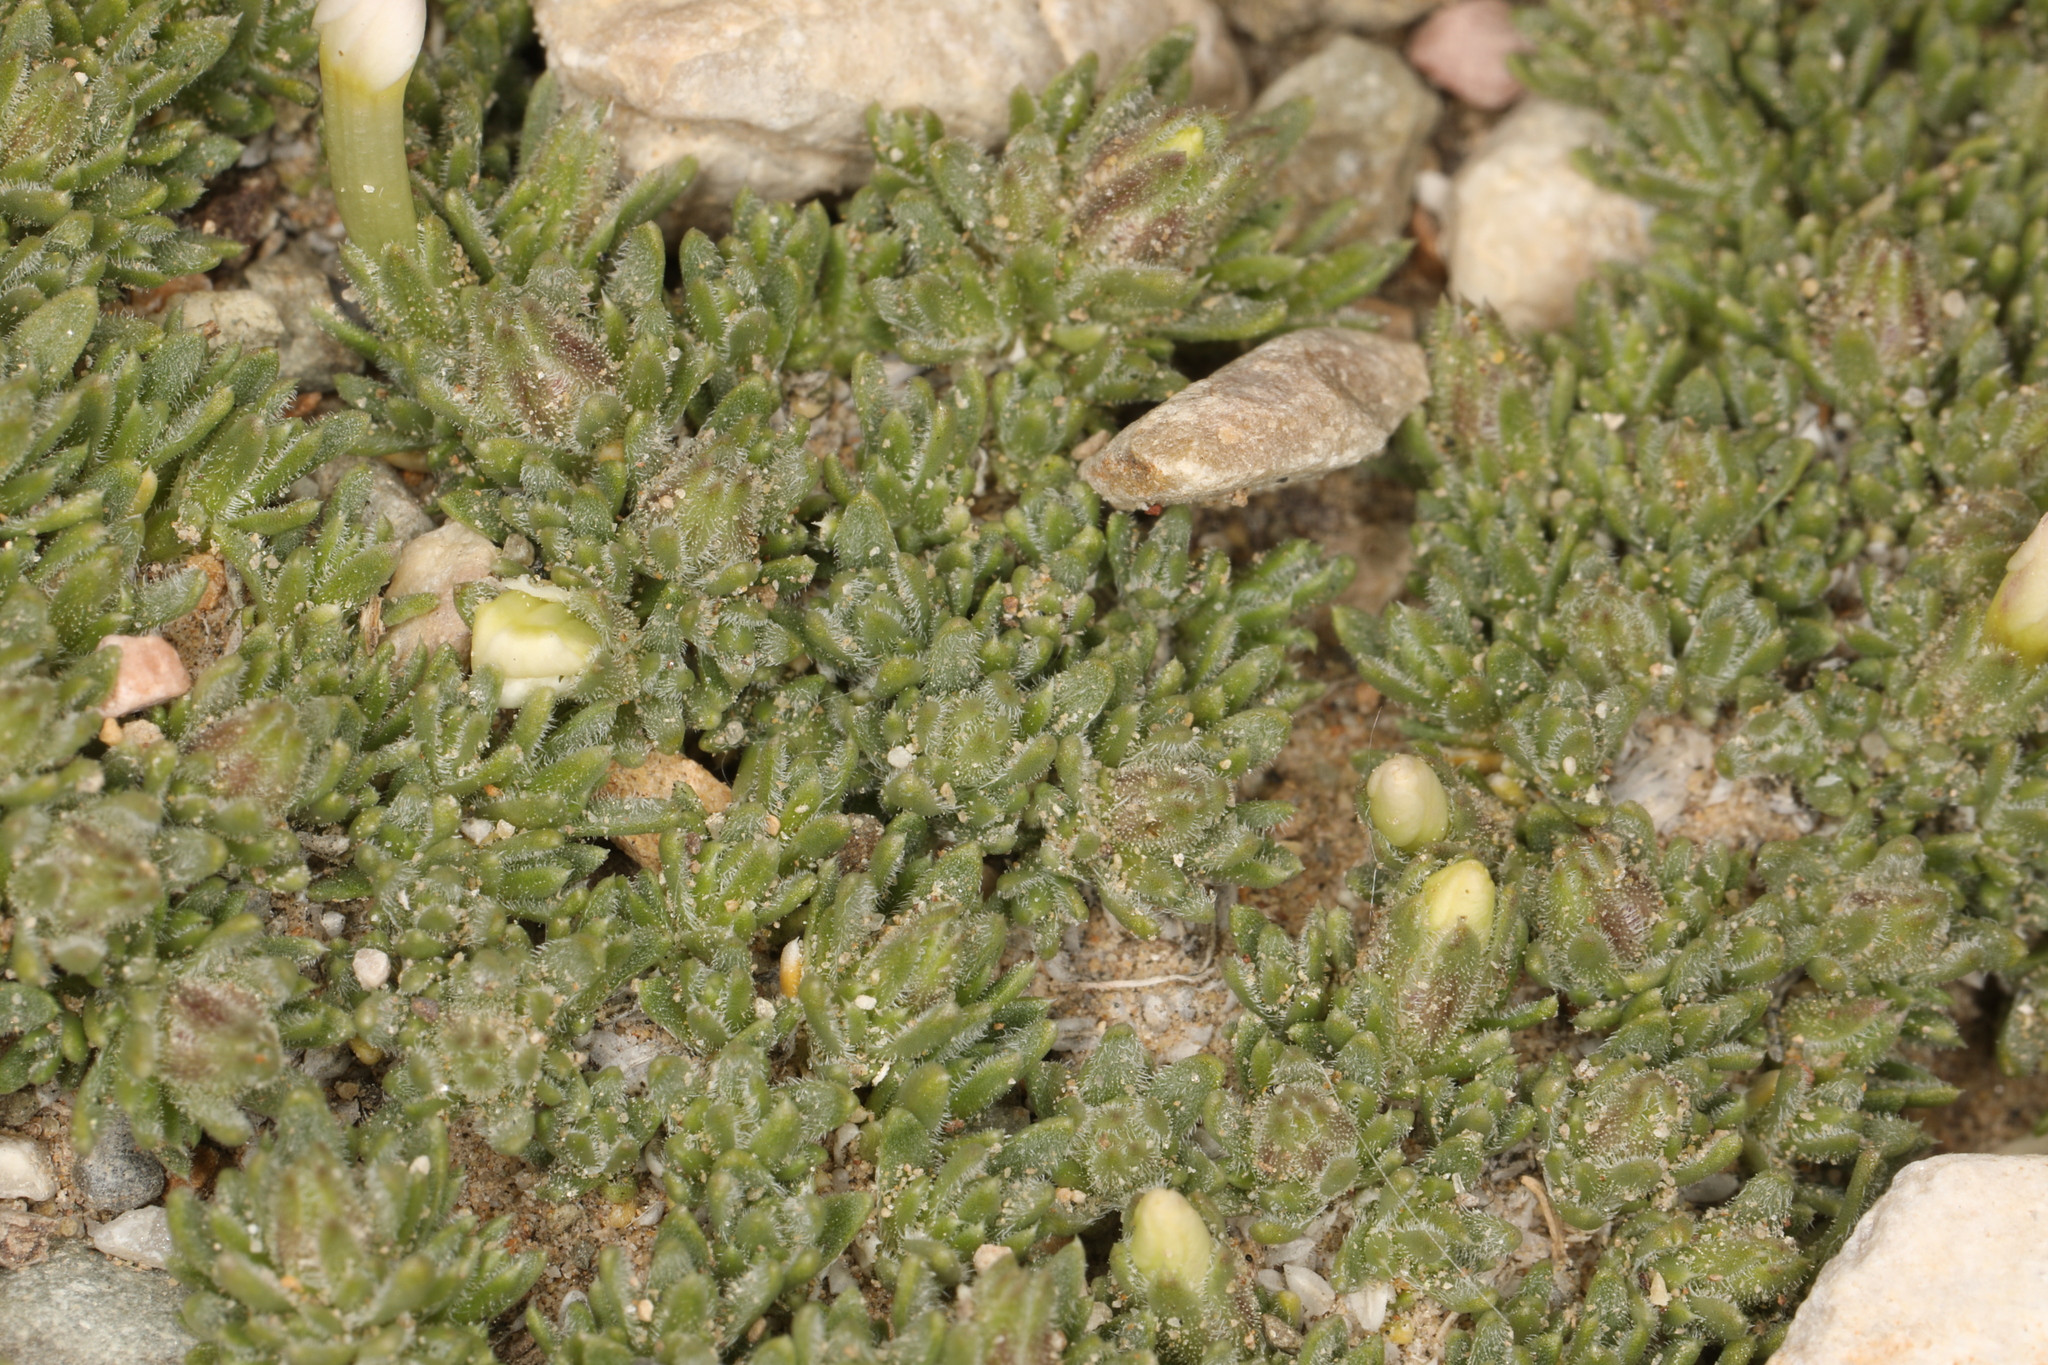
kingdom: Plantae
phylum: Tracheophyta
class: Magnoliopsida
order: Ericales
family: Polemoniaceae
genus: Phlox
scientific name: Phlox condensata
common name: Compact phlox
